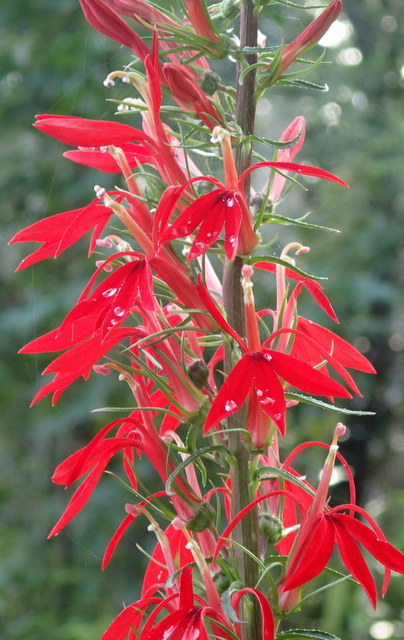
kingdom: Plantae
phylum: Tracheophyta
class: Magnoliopsida
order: Asterales
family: Campanulaceae
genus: Lobelia
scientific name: Lobelia cardinalis
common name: Cardinal flower
